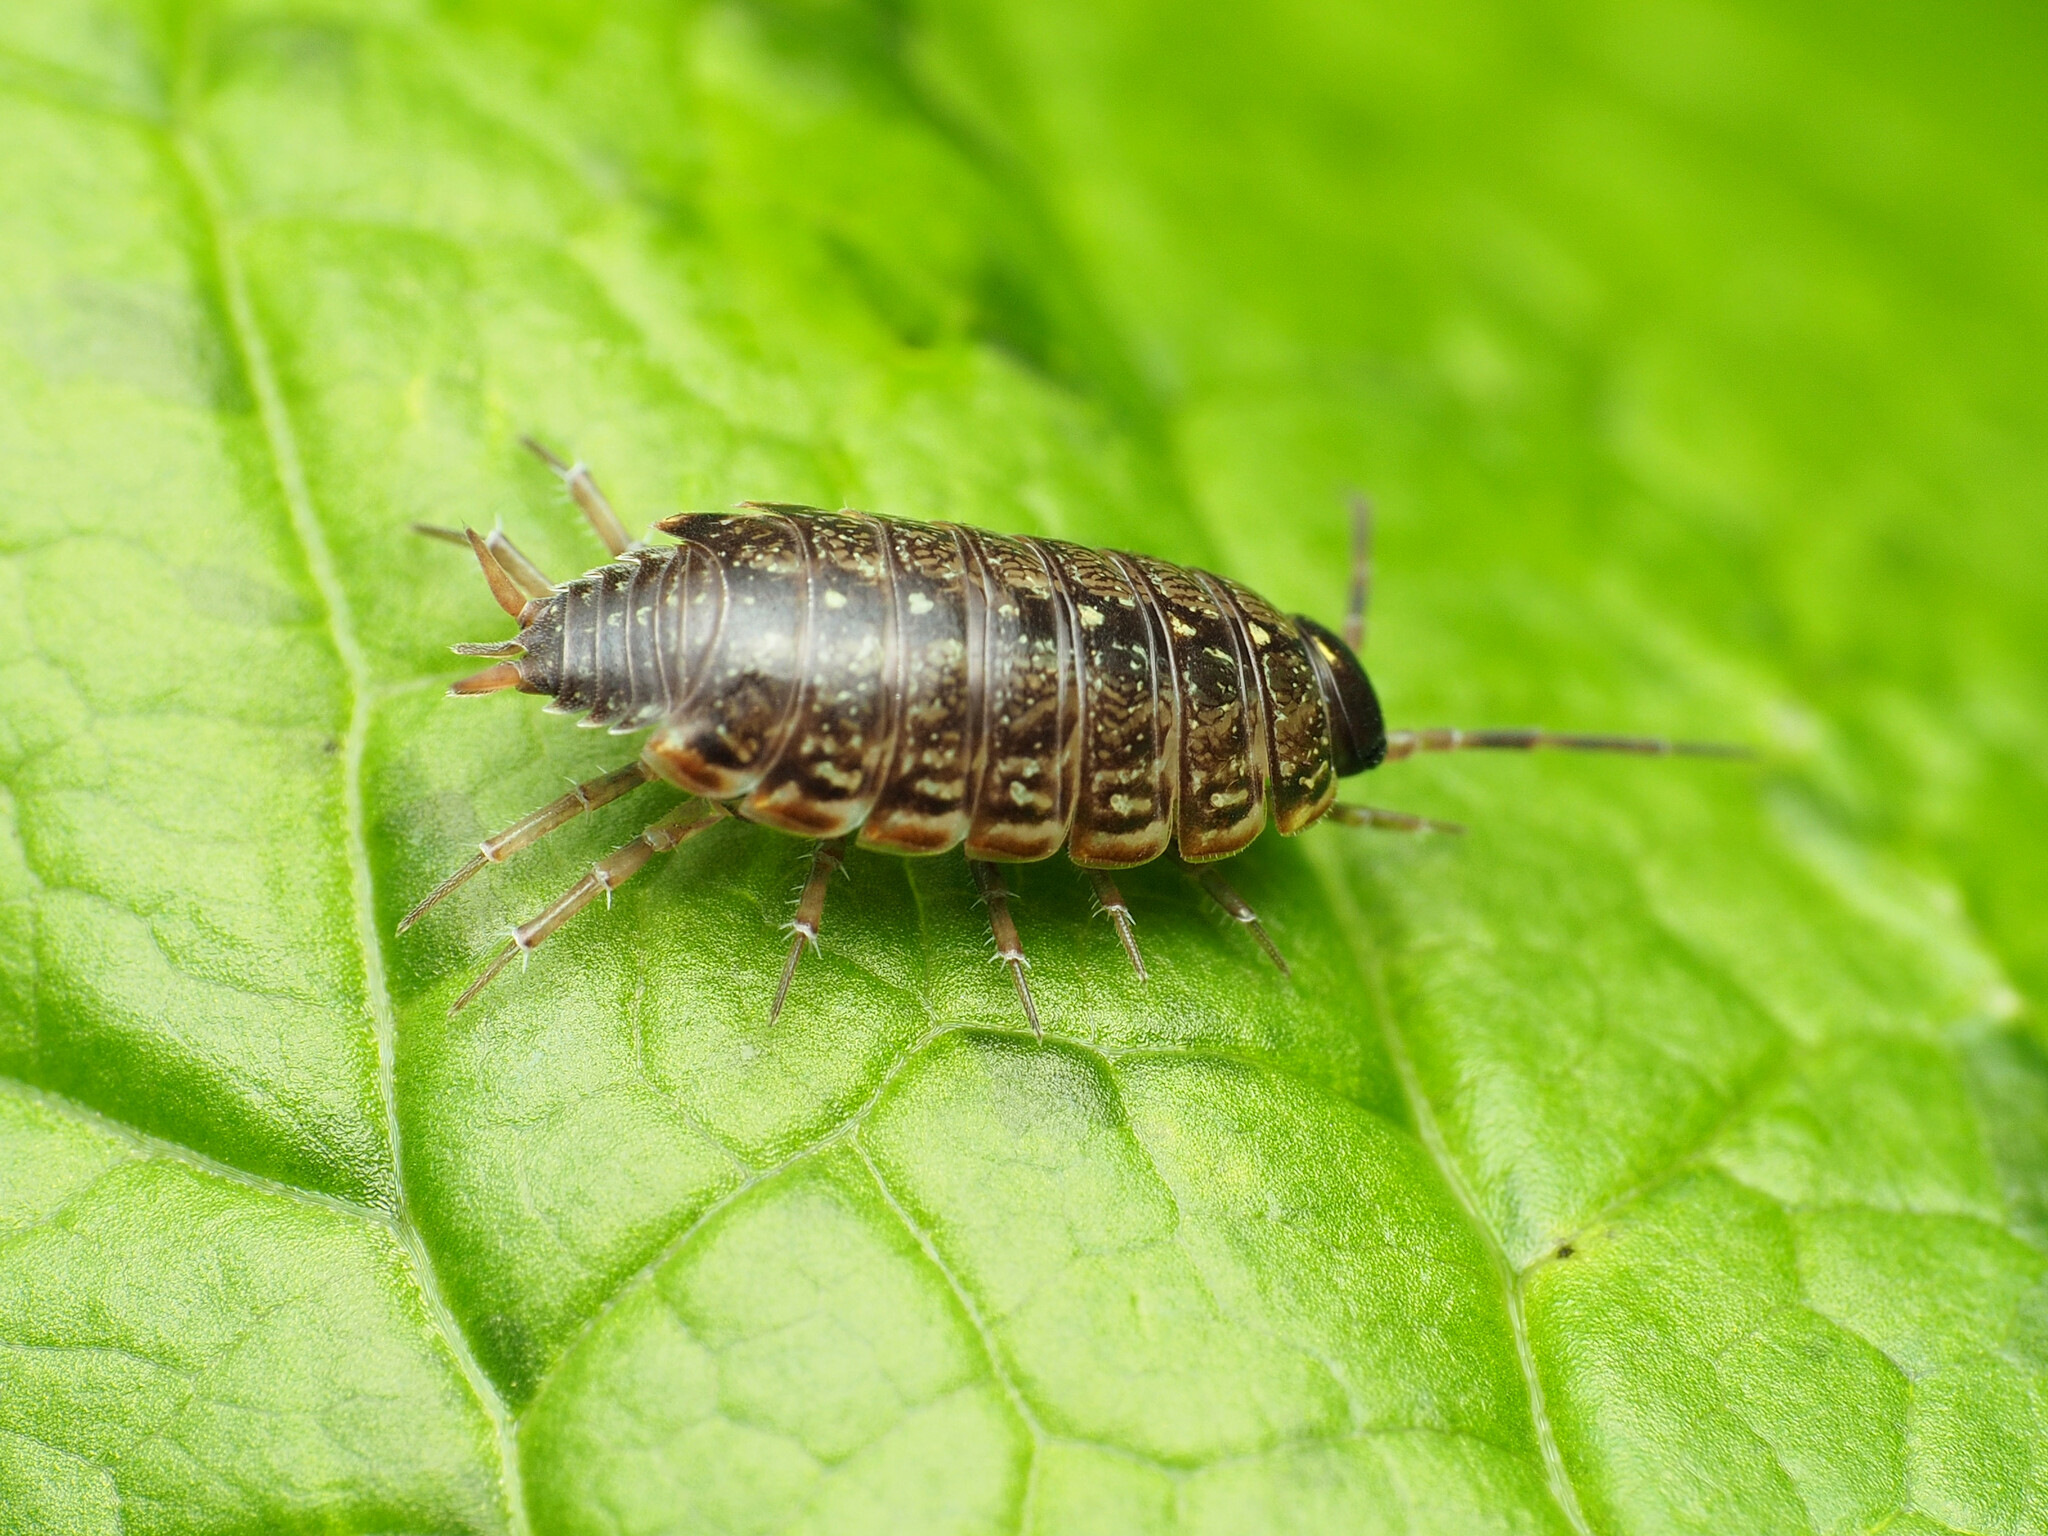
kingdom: Animalia
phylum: Arthropoda
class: Malacostraca
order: Isopoda
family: Philosciidae
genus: Philoscia
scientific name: Philoscia muscorum
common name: Common striped woodlouse
